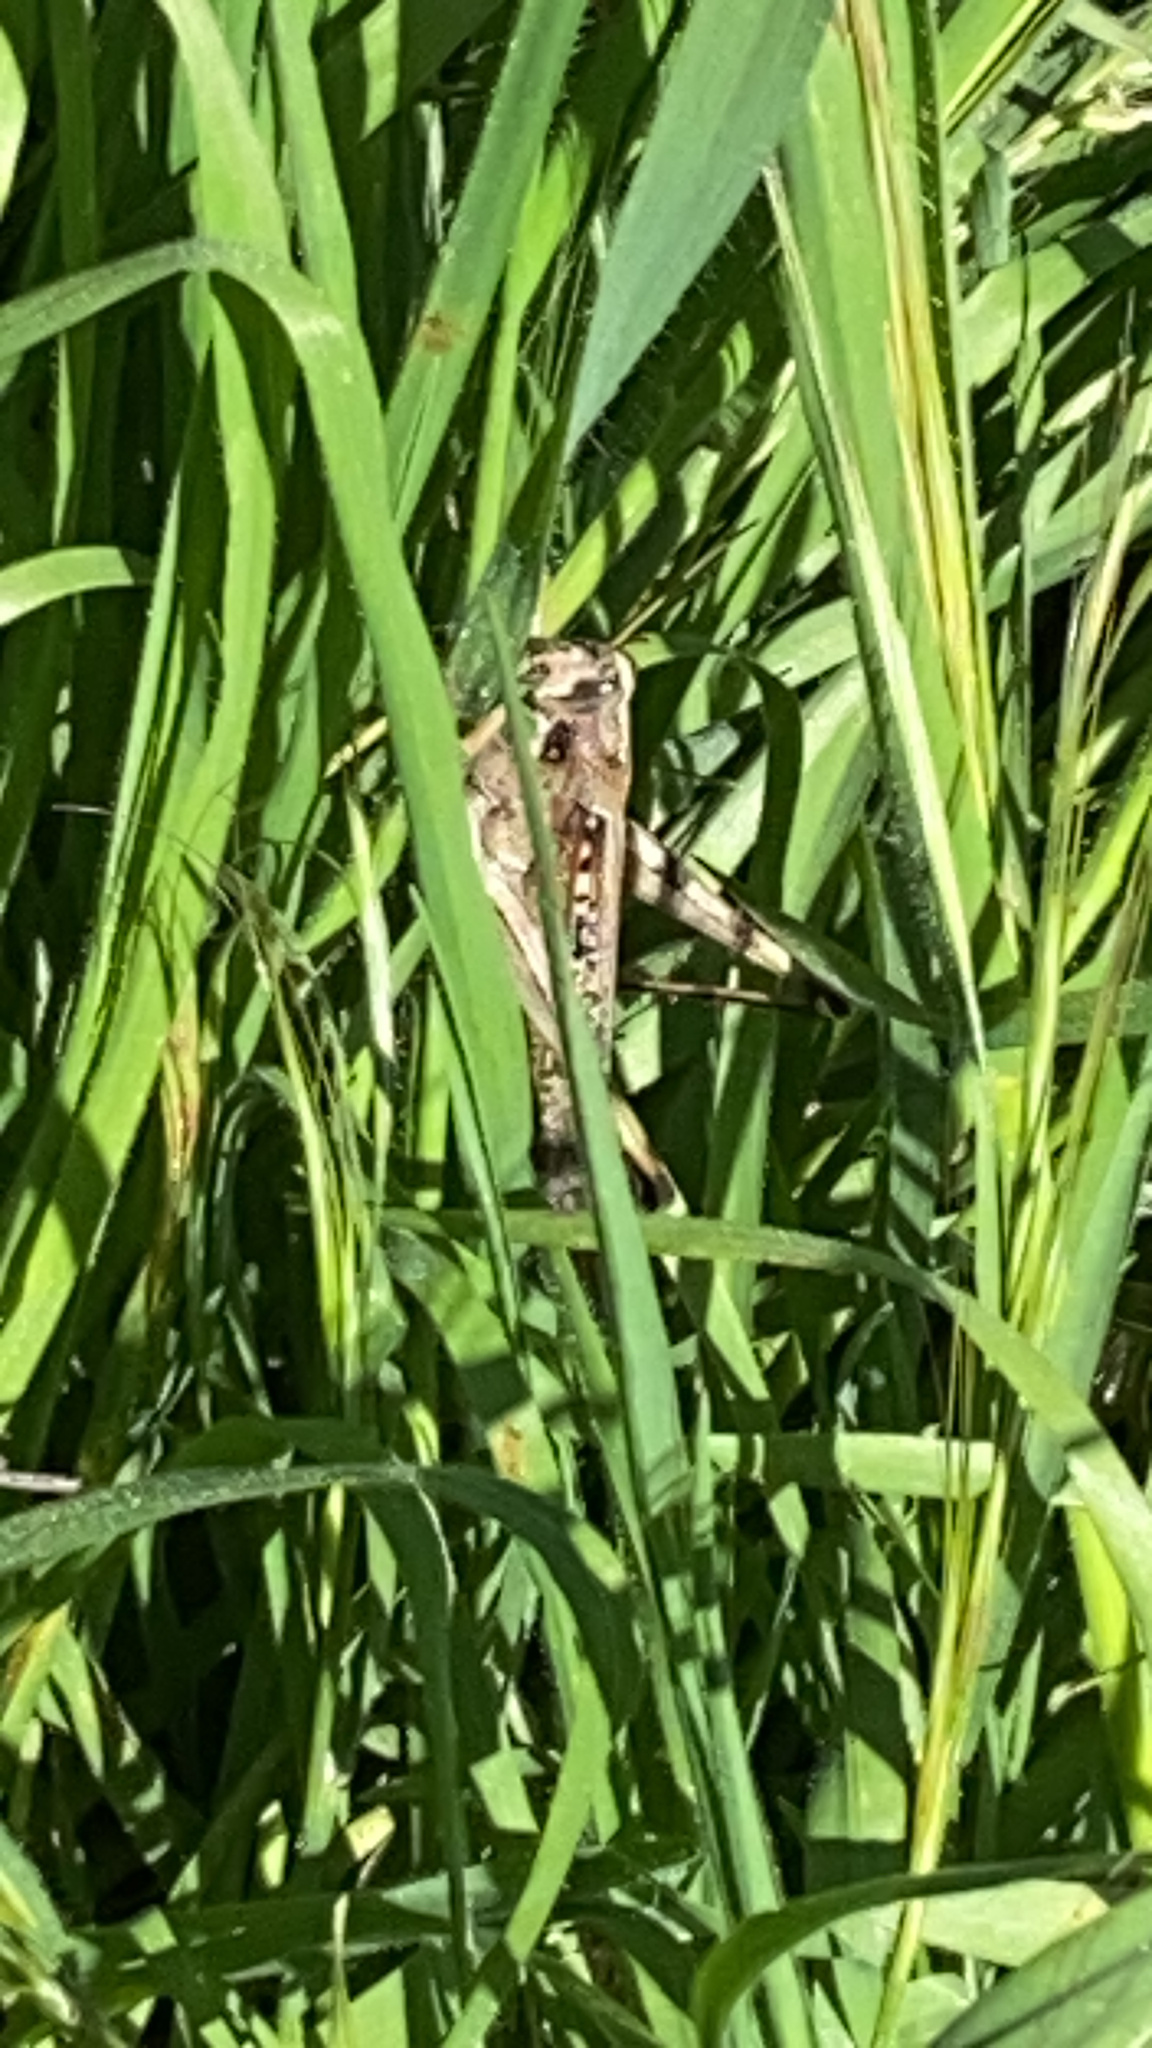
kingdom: Animalia
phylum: Arthropoda
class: Insecta
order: Orthoptera
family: Acrididae
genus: Schistocerca
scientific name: Schistocerca nitens
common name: Vagrant grasshopper
